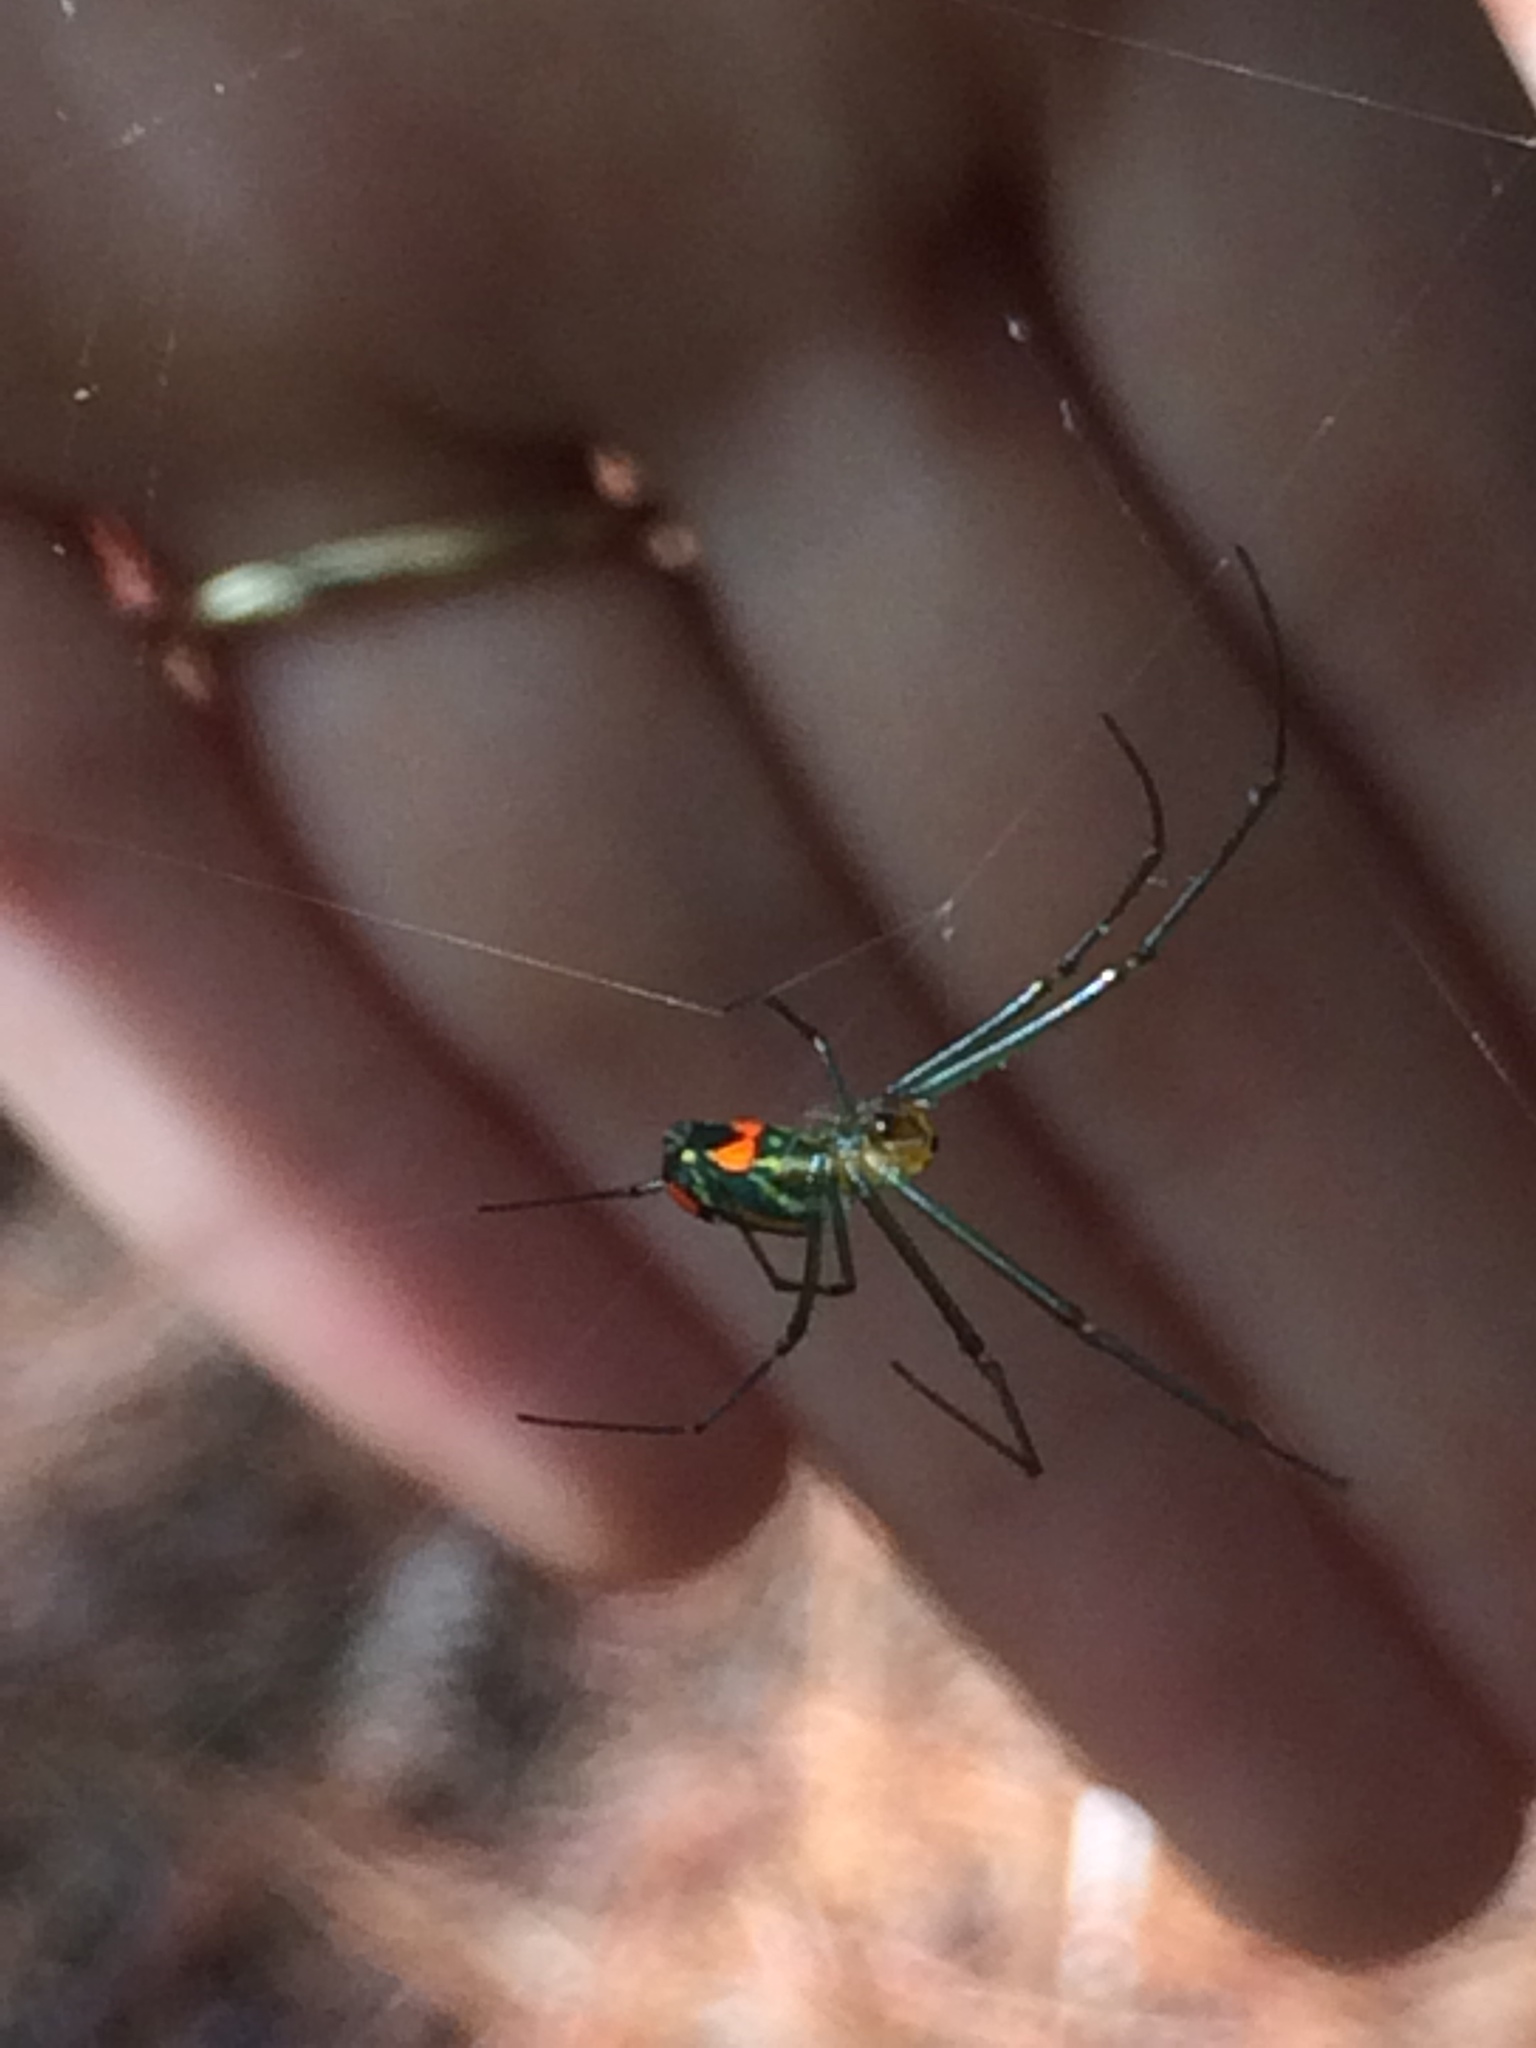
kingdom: Animalia
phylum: Arthropoda
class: Arachnida
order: Araneae
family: Tetragnathidae
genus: Leucauge
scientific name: Leucauge argyrobapta
